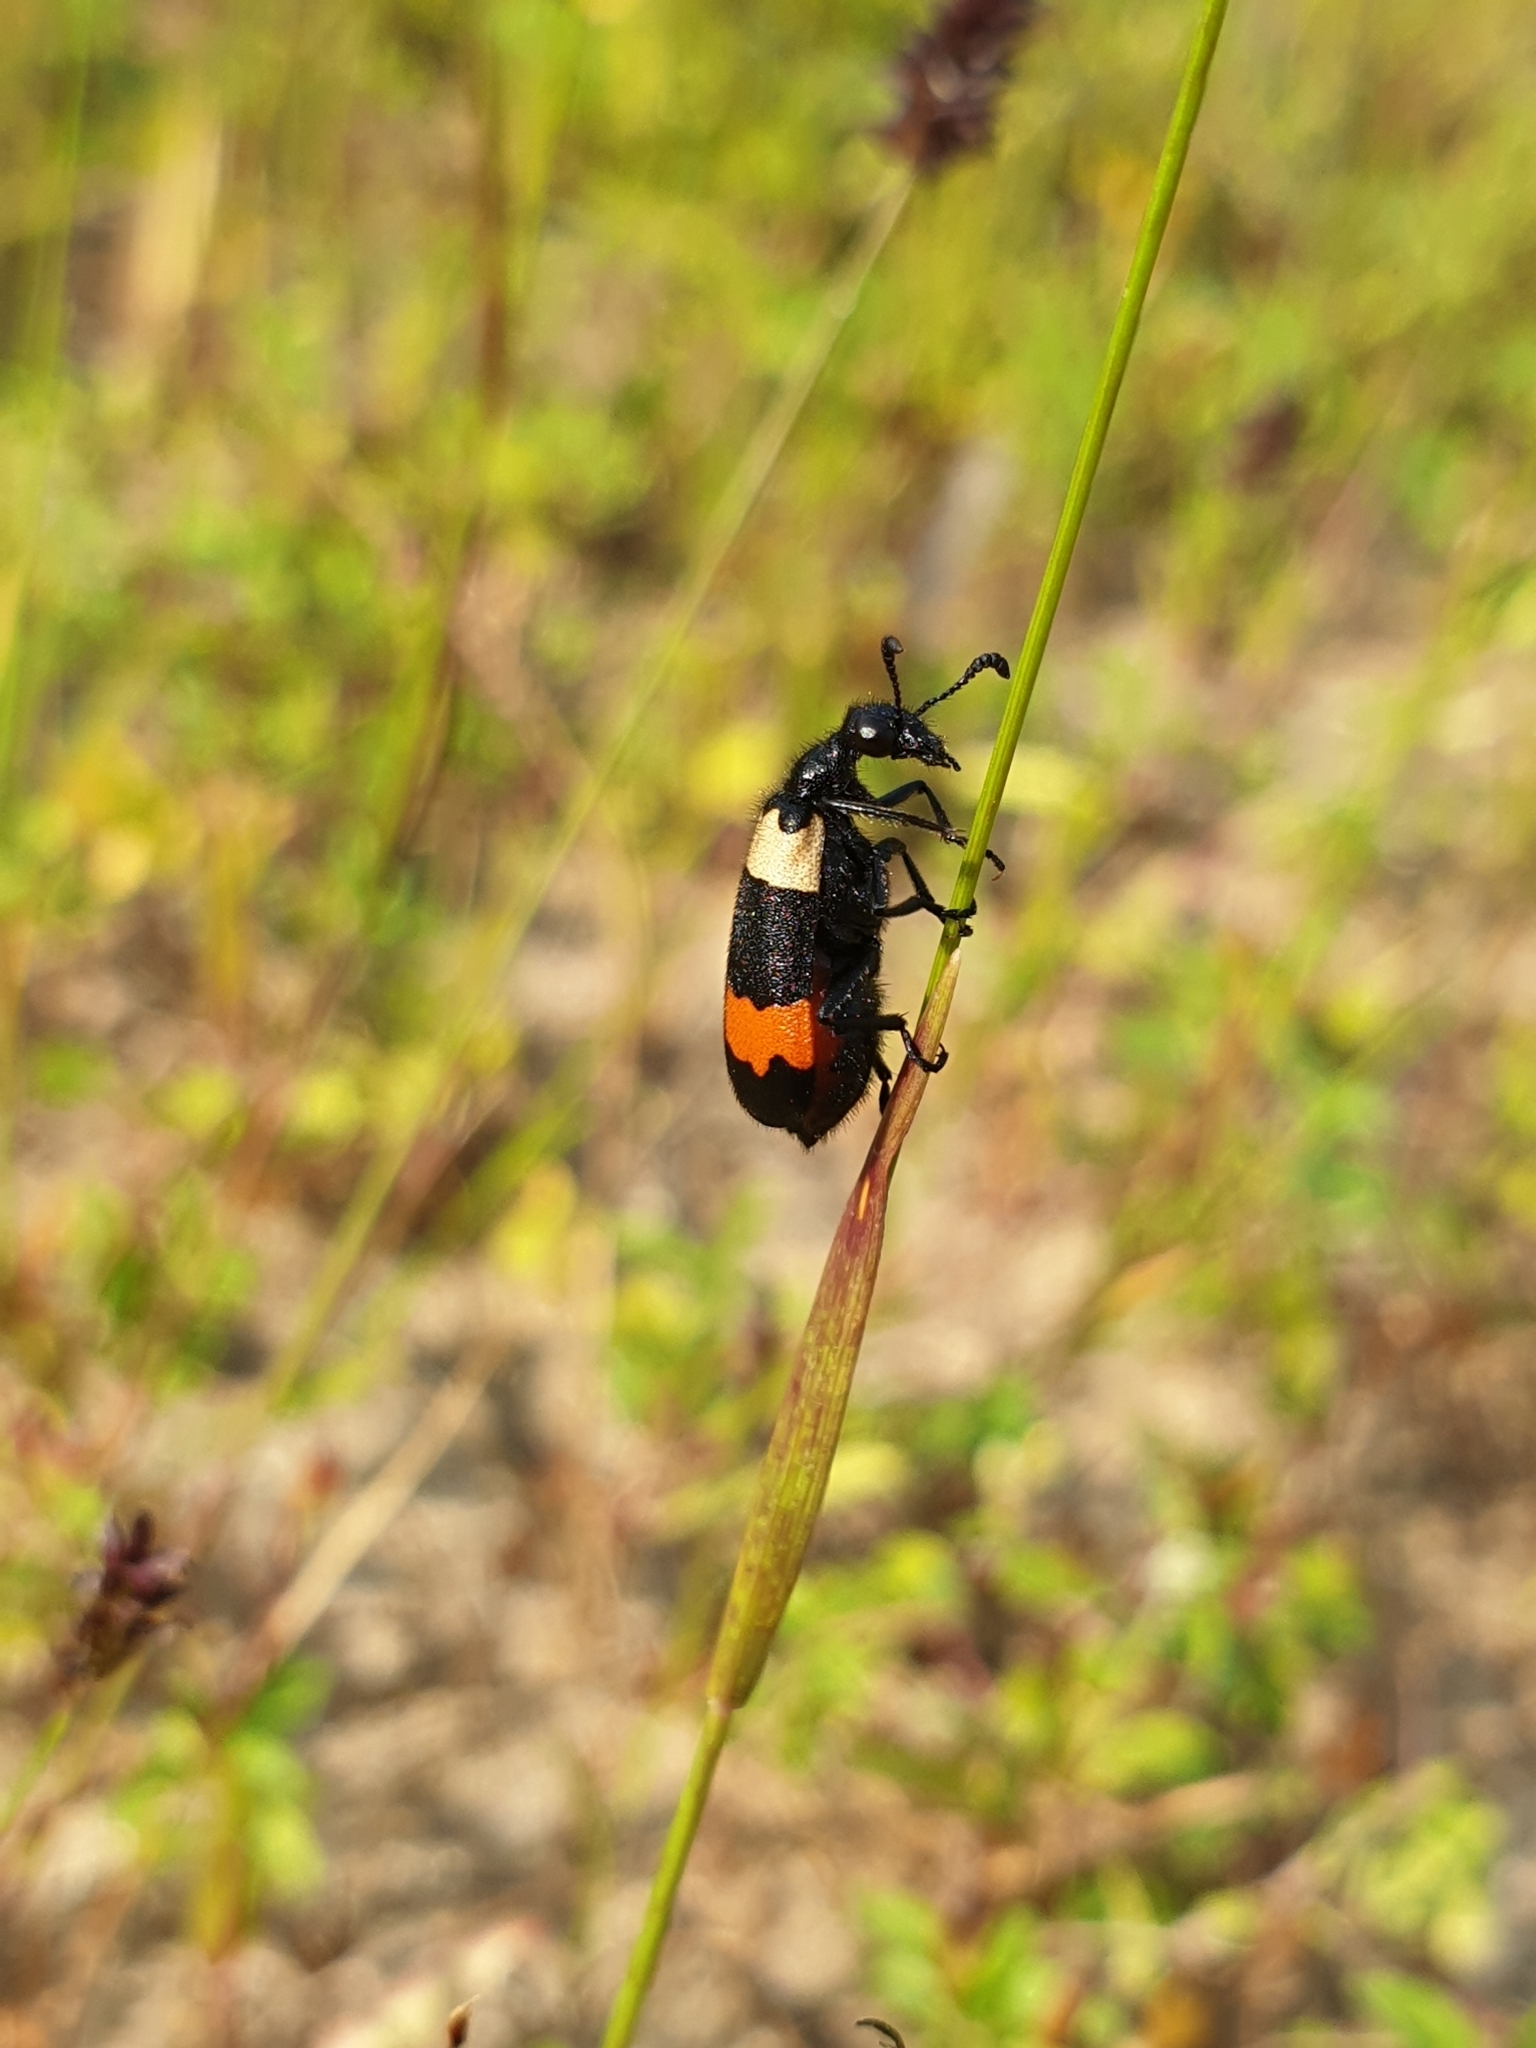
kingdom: Animalia
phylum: Arthropoda
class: Insecta
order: Coleoptera
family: Meloidae
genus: Hycleus
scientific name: Hycleus
